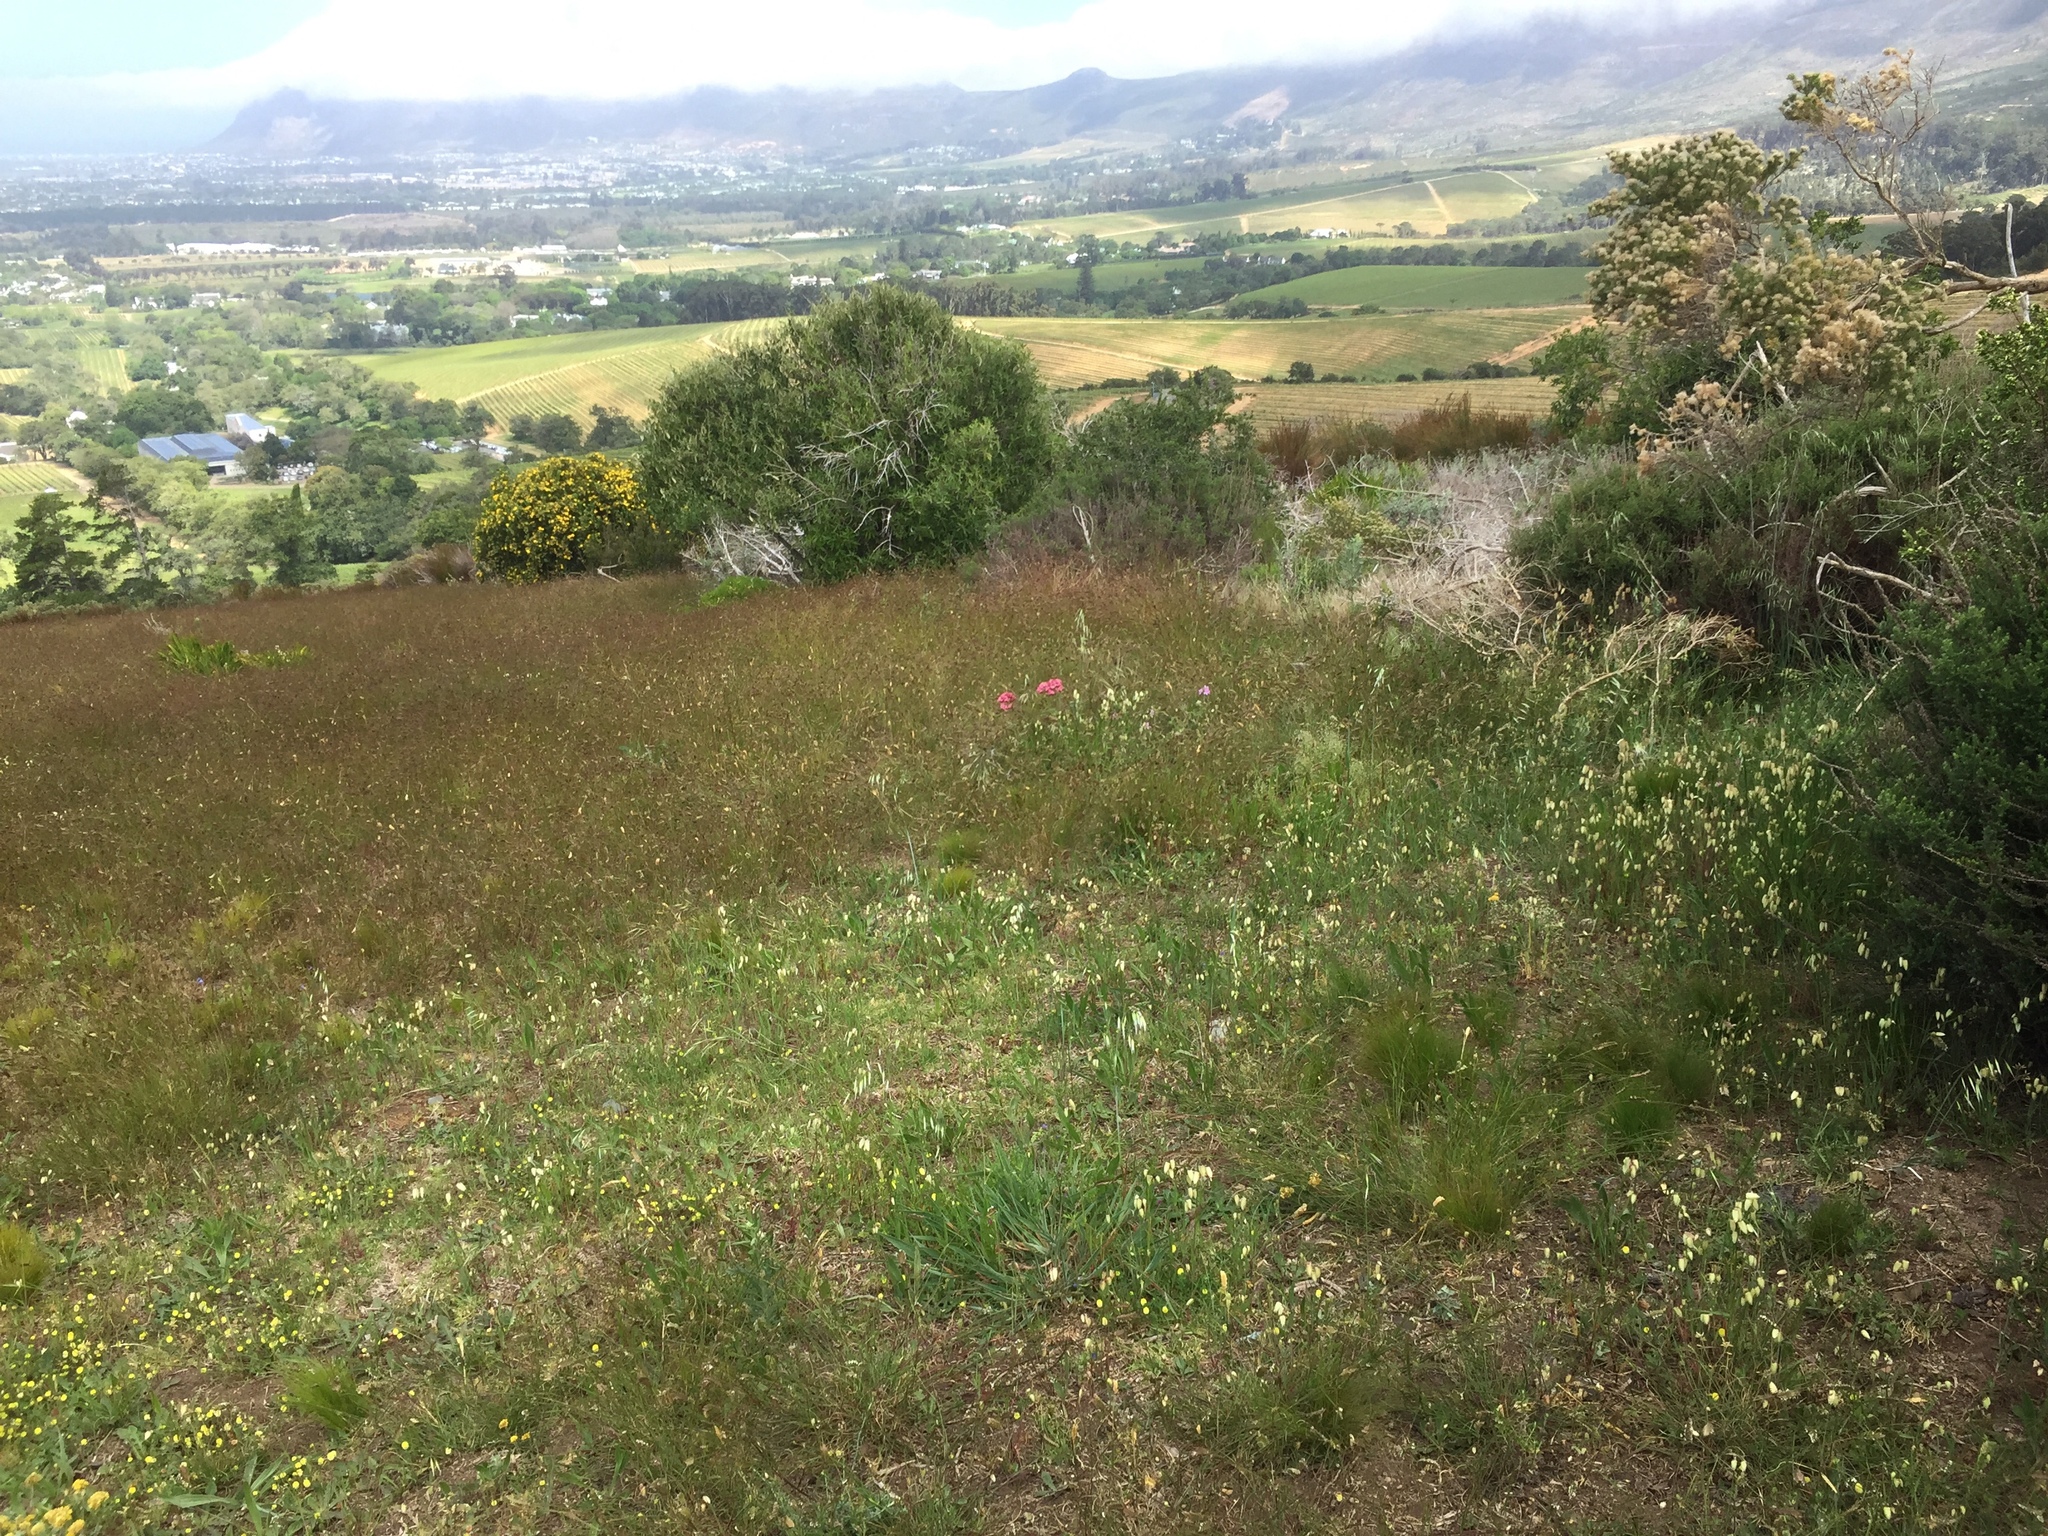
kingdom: Plantae
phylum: Tracheophyta
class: Magnoliopsida
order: Dipsacales
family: Caprifoliaceae
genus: Centranthus
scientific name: Centranthus ruber
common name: Red valerian
